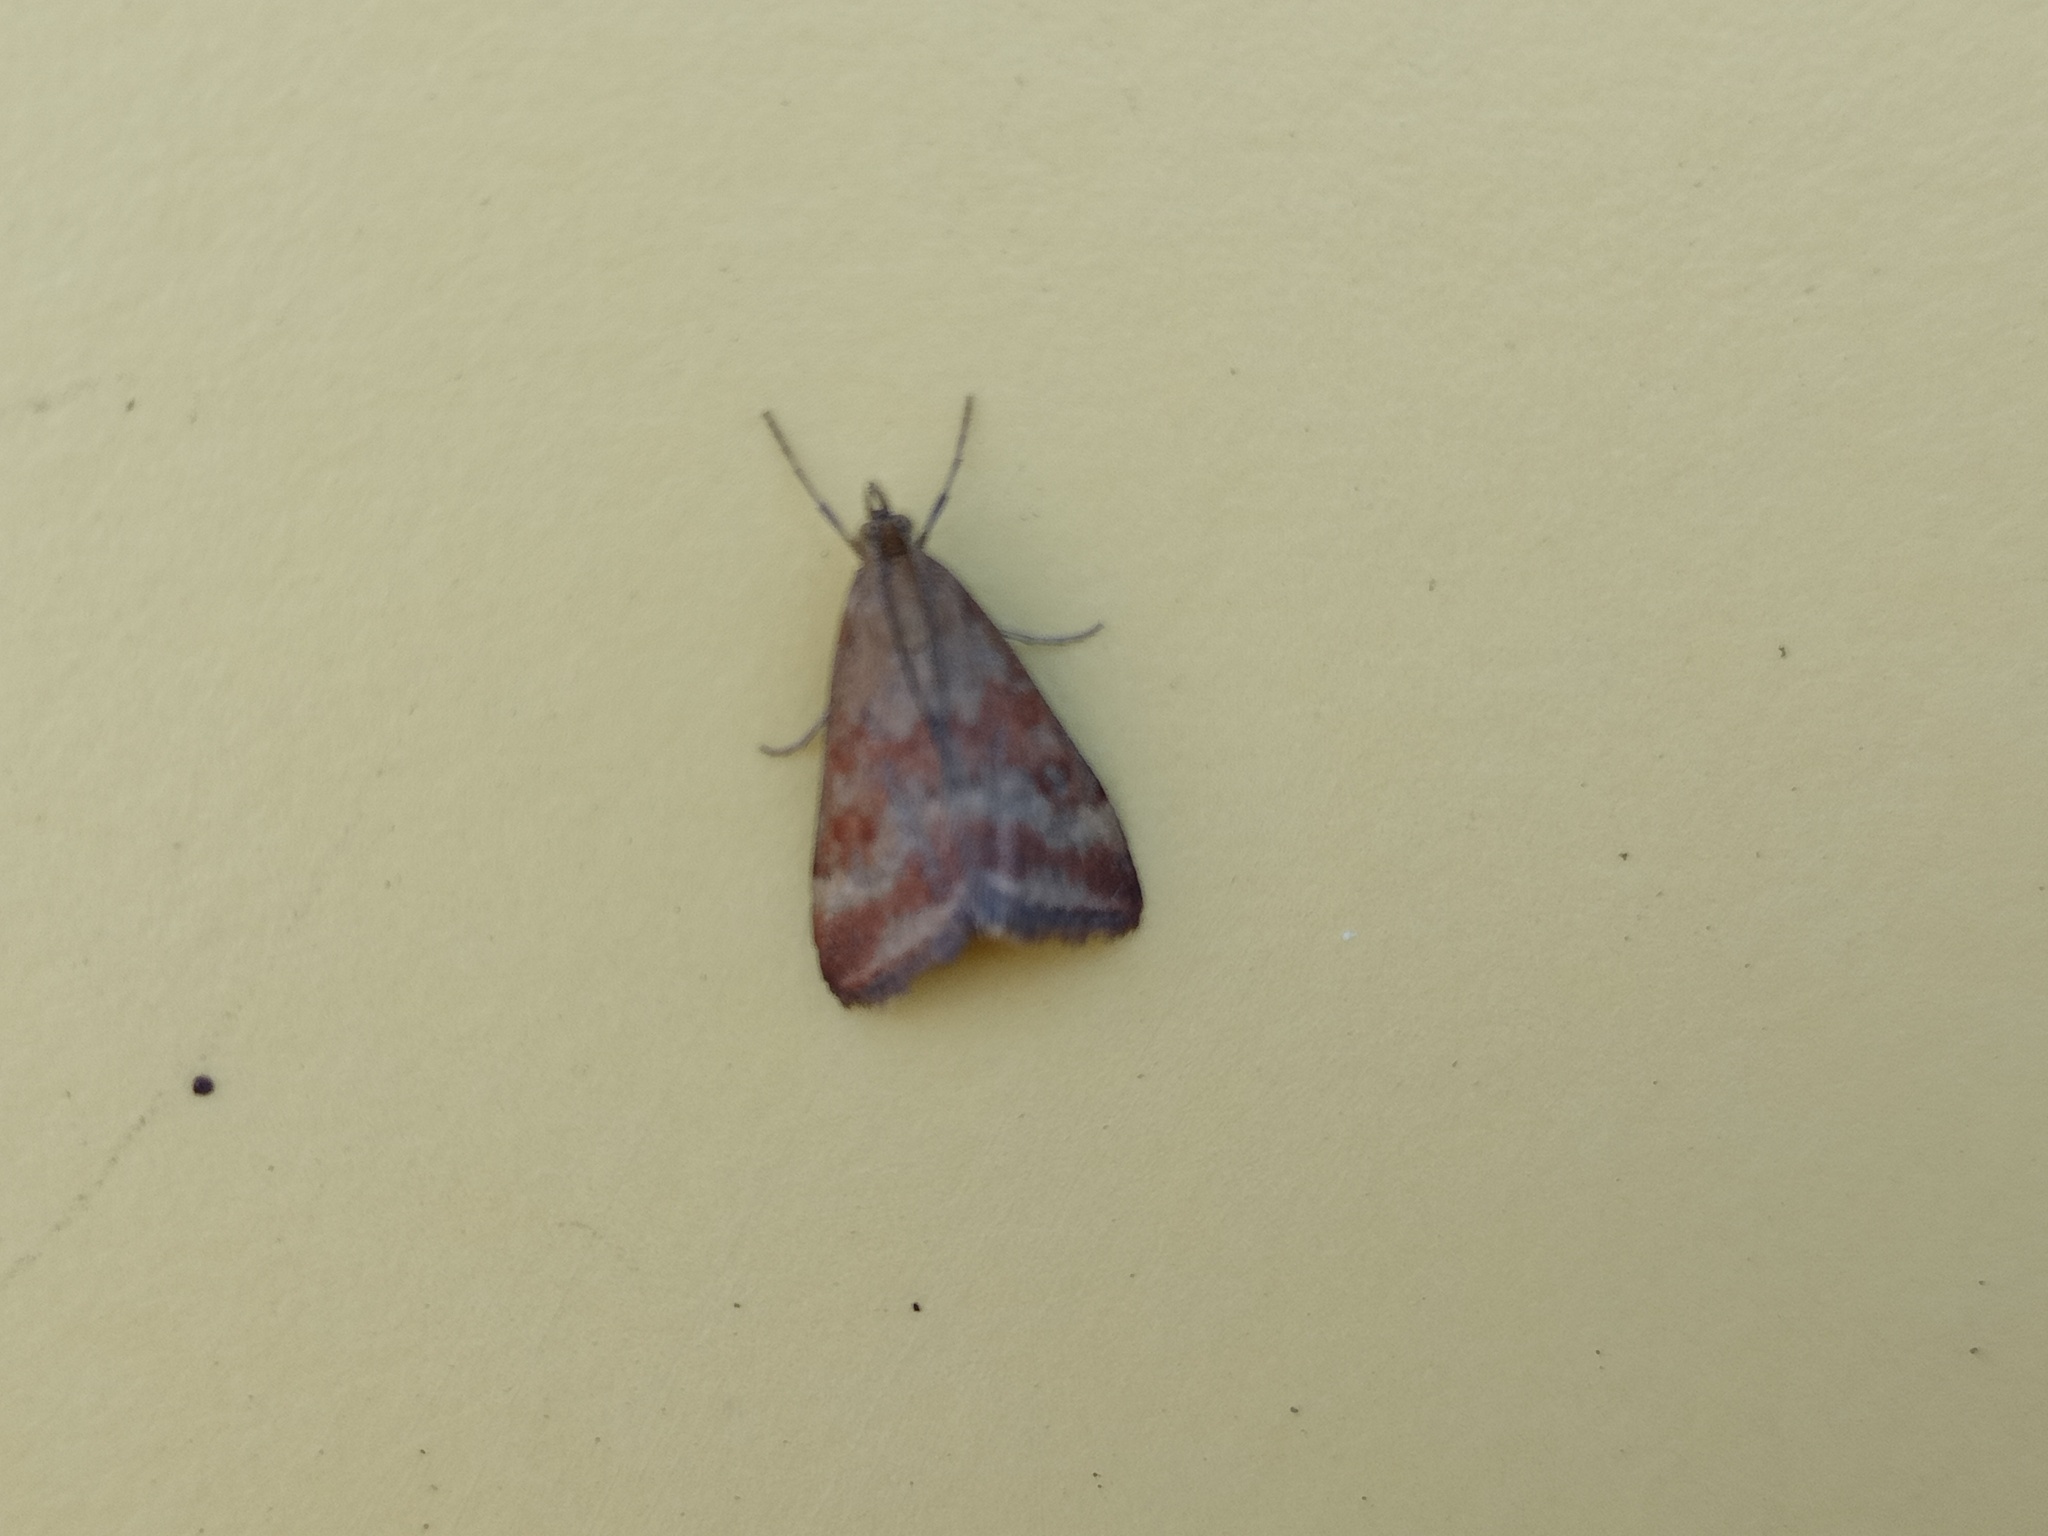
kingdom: Animalia
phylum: Arthropoda
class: Insecta
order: Lepidoptera
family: Crambidae
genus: Pyrausta
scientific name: Pyrausta despicata
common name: Straw-barred pearl
